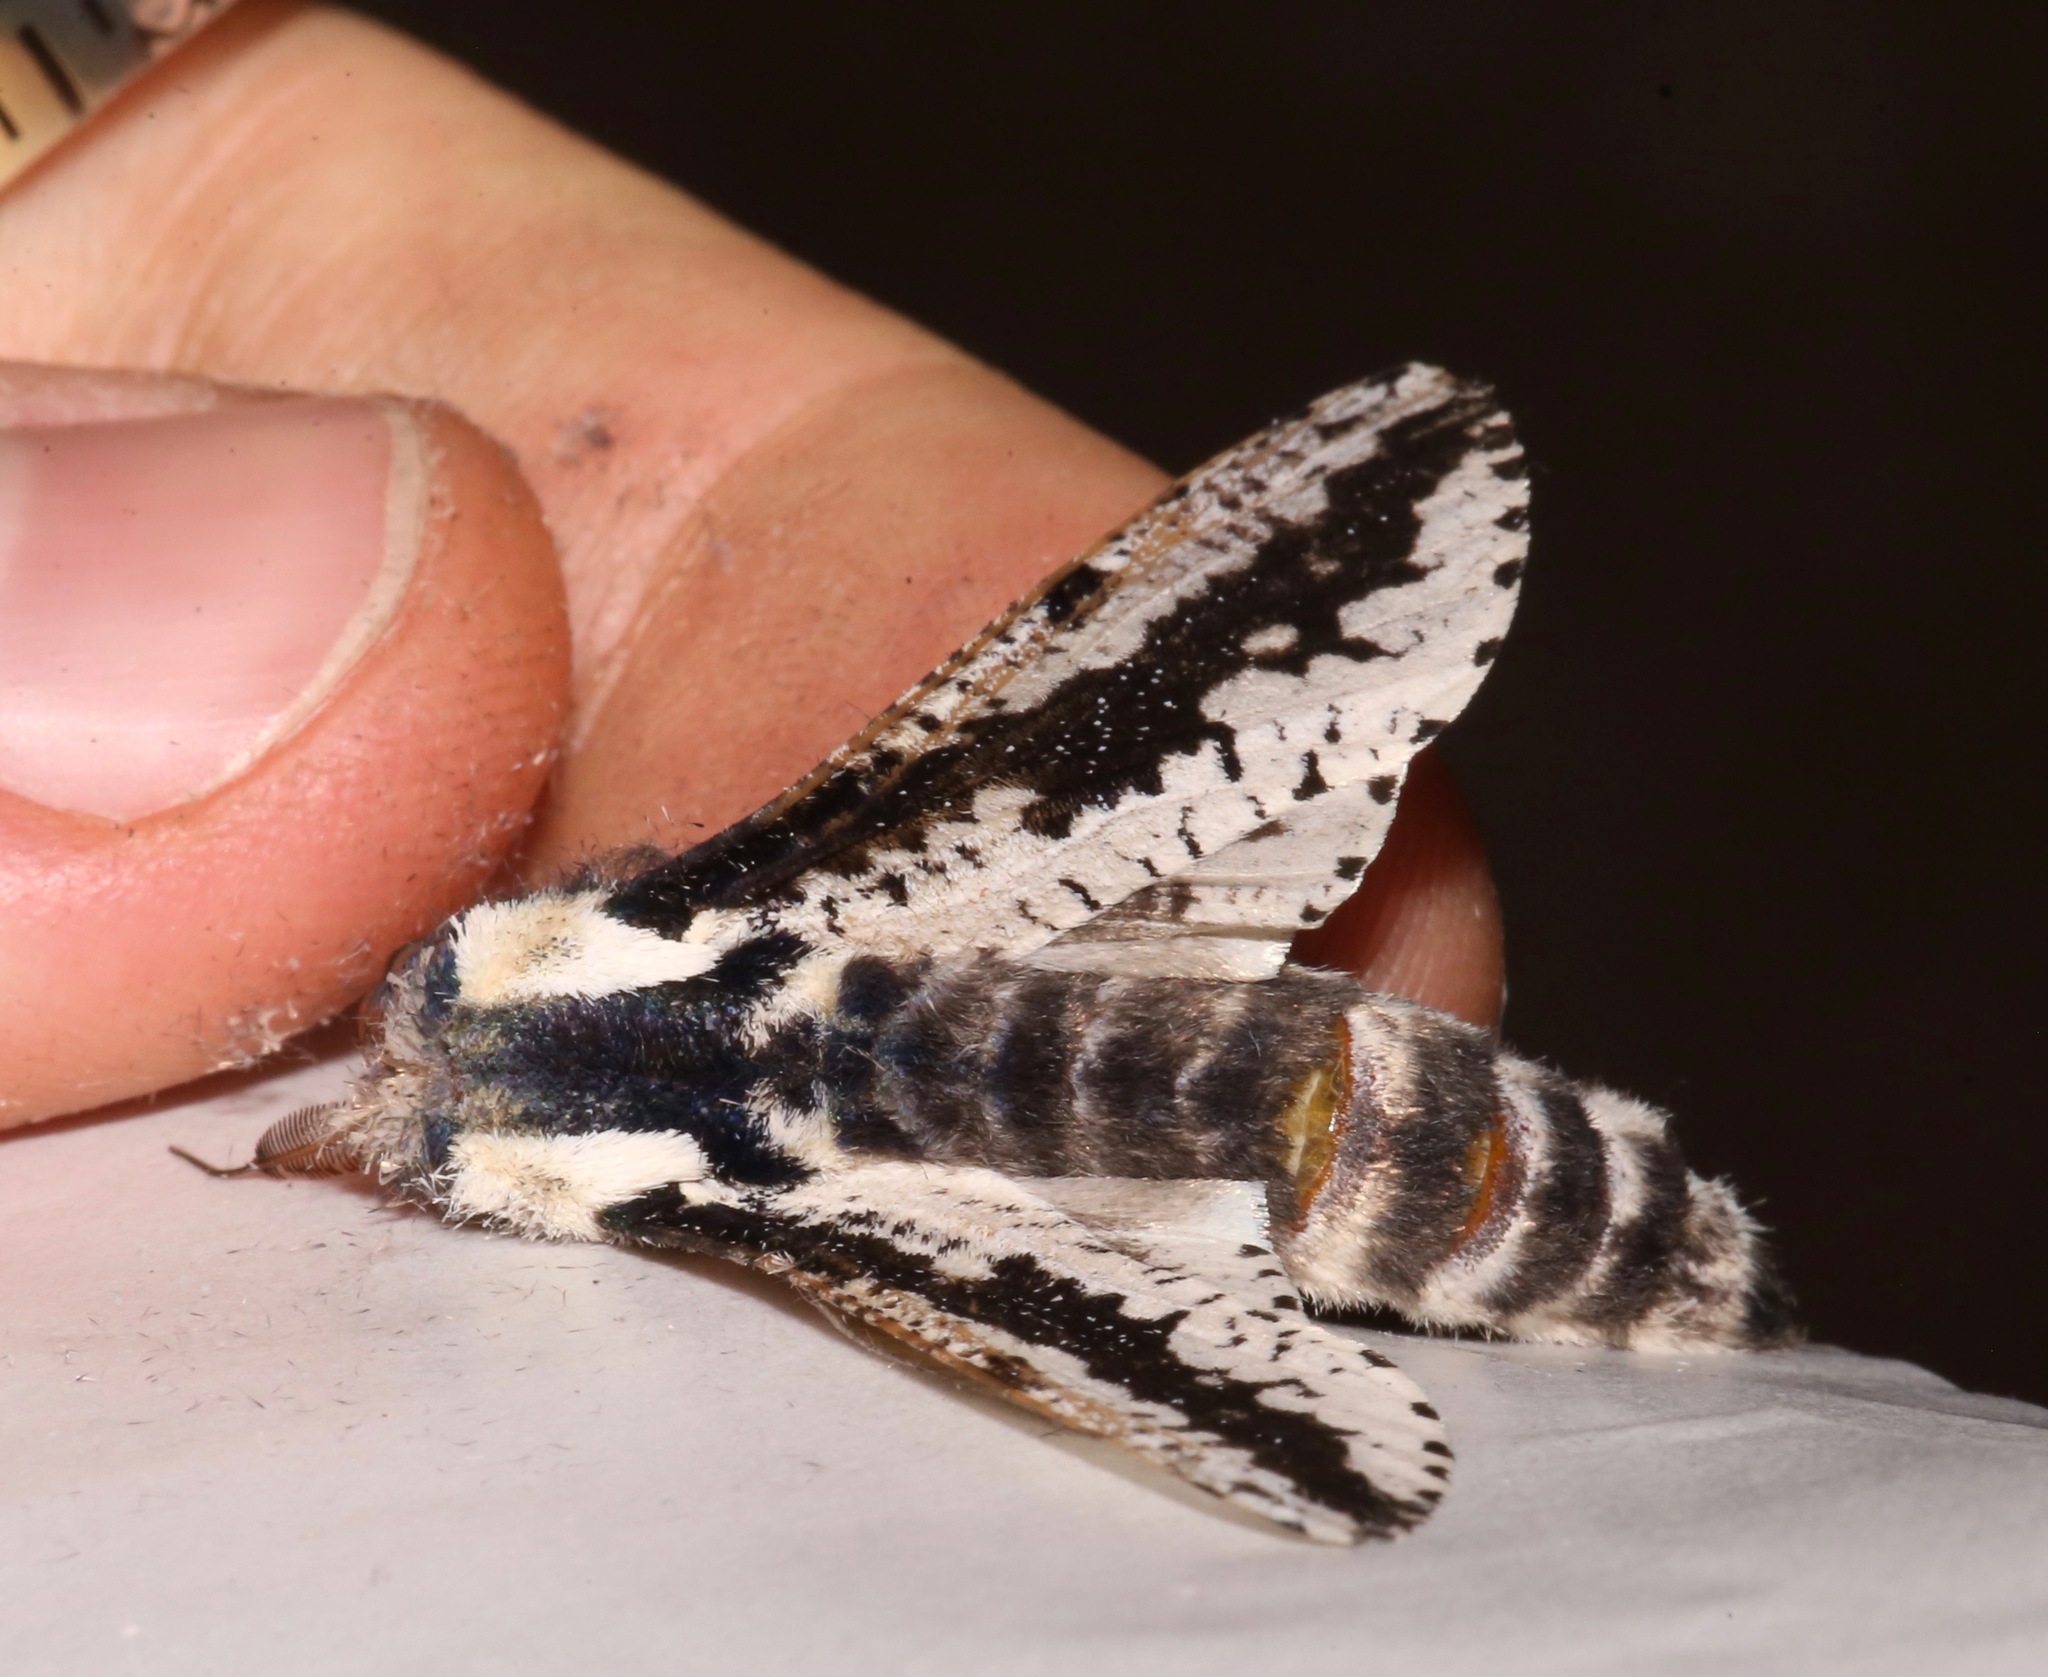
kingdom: Animalia
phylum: Arthropoda
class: Insecta
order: Lepidoptera
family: Cossidae
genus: Morpheis
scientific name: Morpheis clenchi
